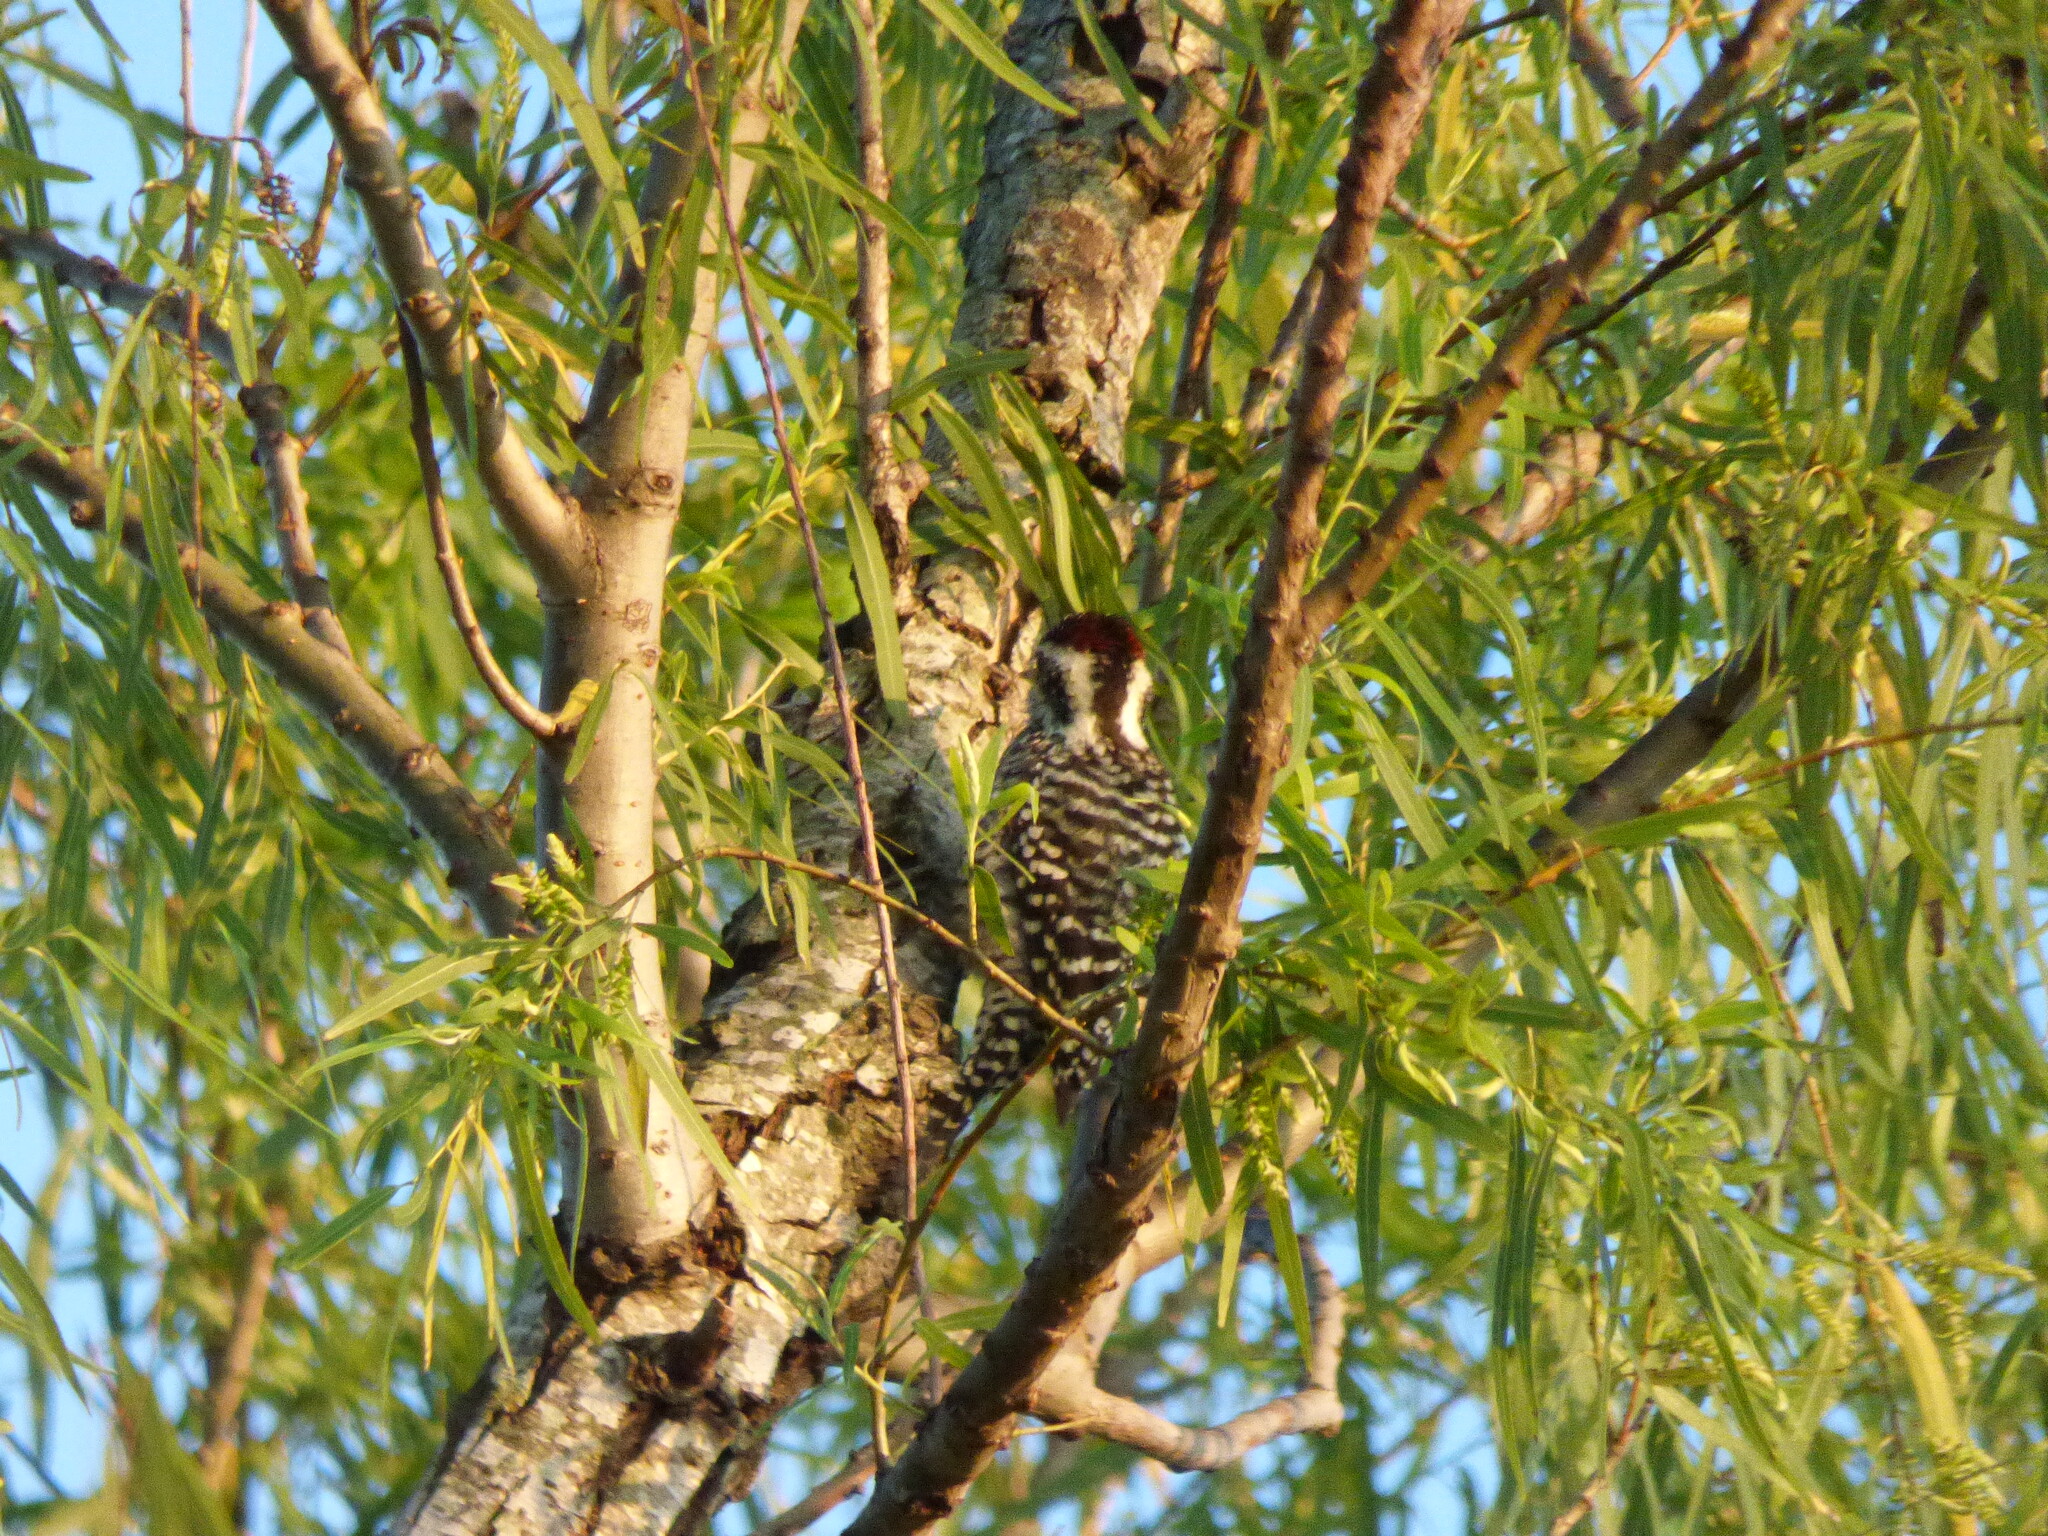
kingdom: Animalia
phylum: Chordata
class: Aves
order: Piciformes
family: Picidae
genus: Veniliornis
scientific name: Veniliornis mixtus
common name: Checkered woodpecker
